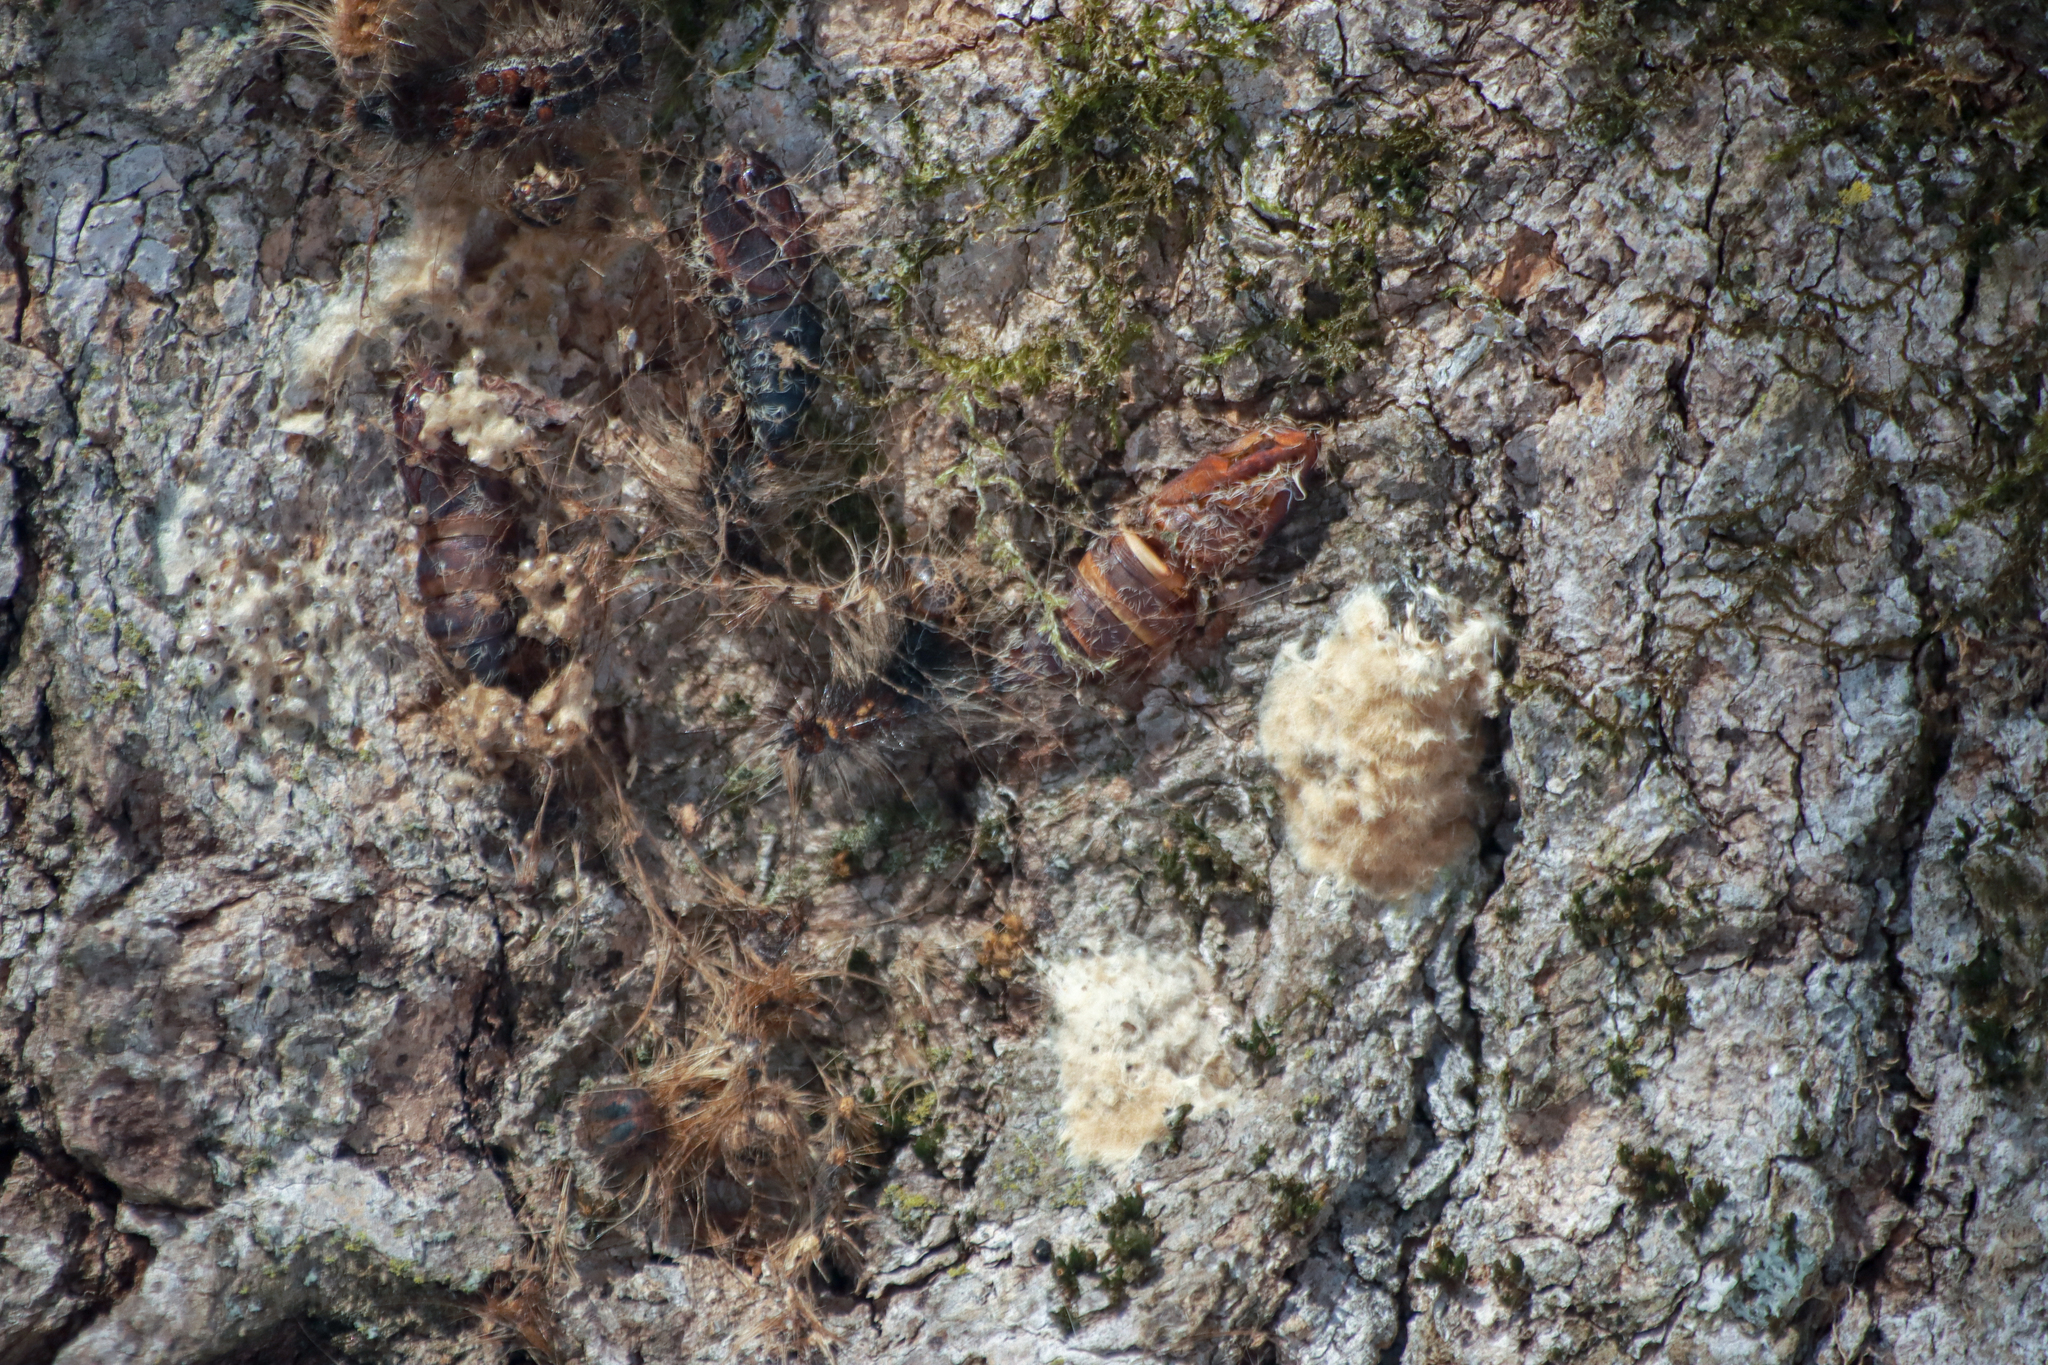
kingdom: Animalia
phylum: Arthropoda
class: Insecta
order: Lepidoptera
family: Erebidae
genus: Lymantria
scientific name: Lymantria dispar
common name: Gypsy moth
